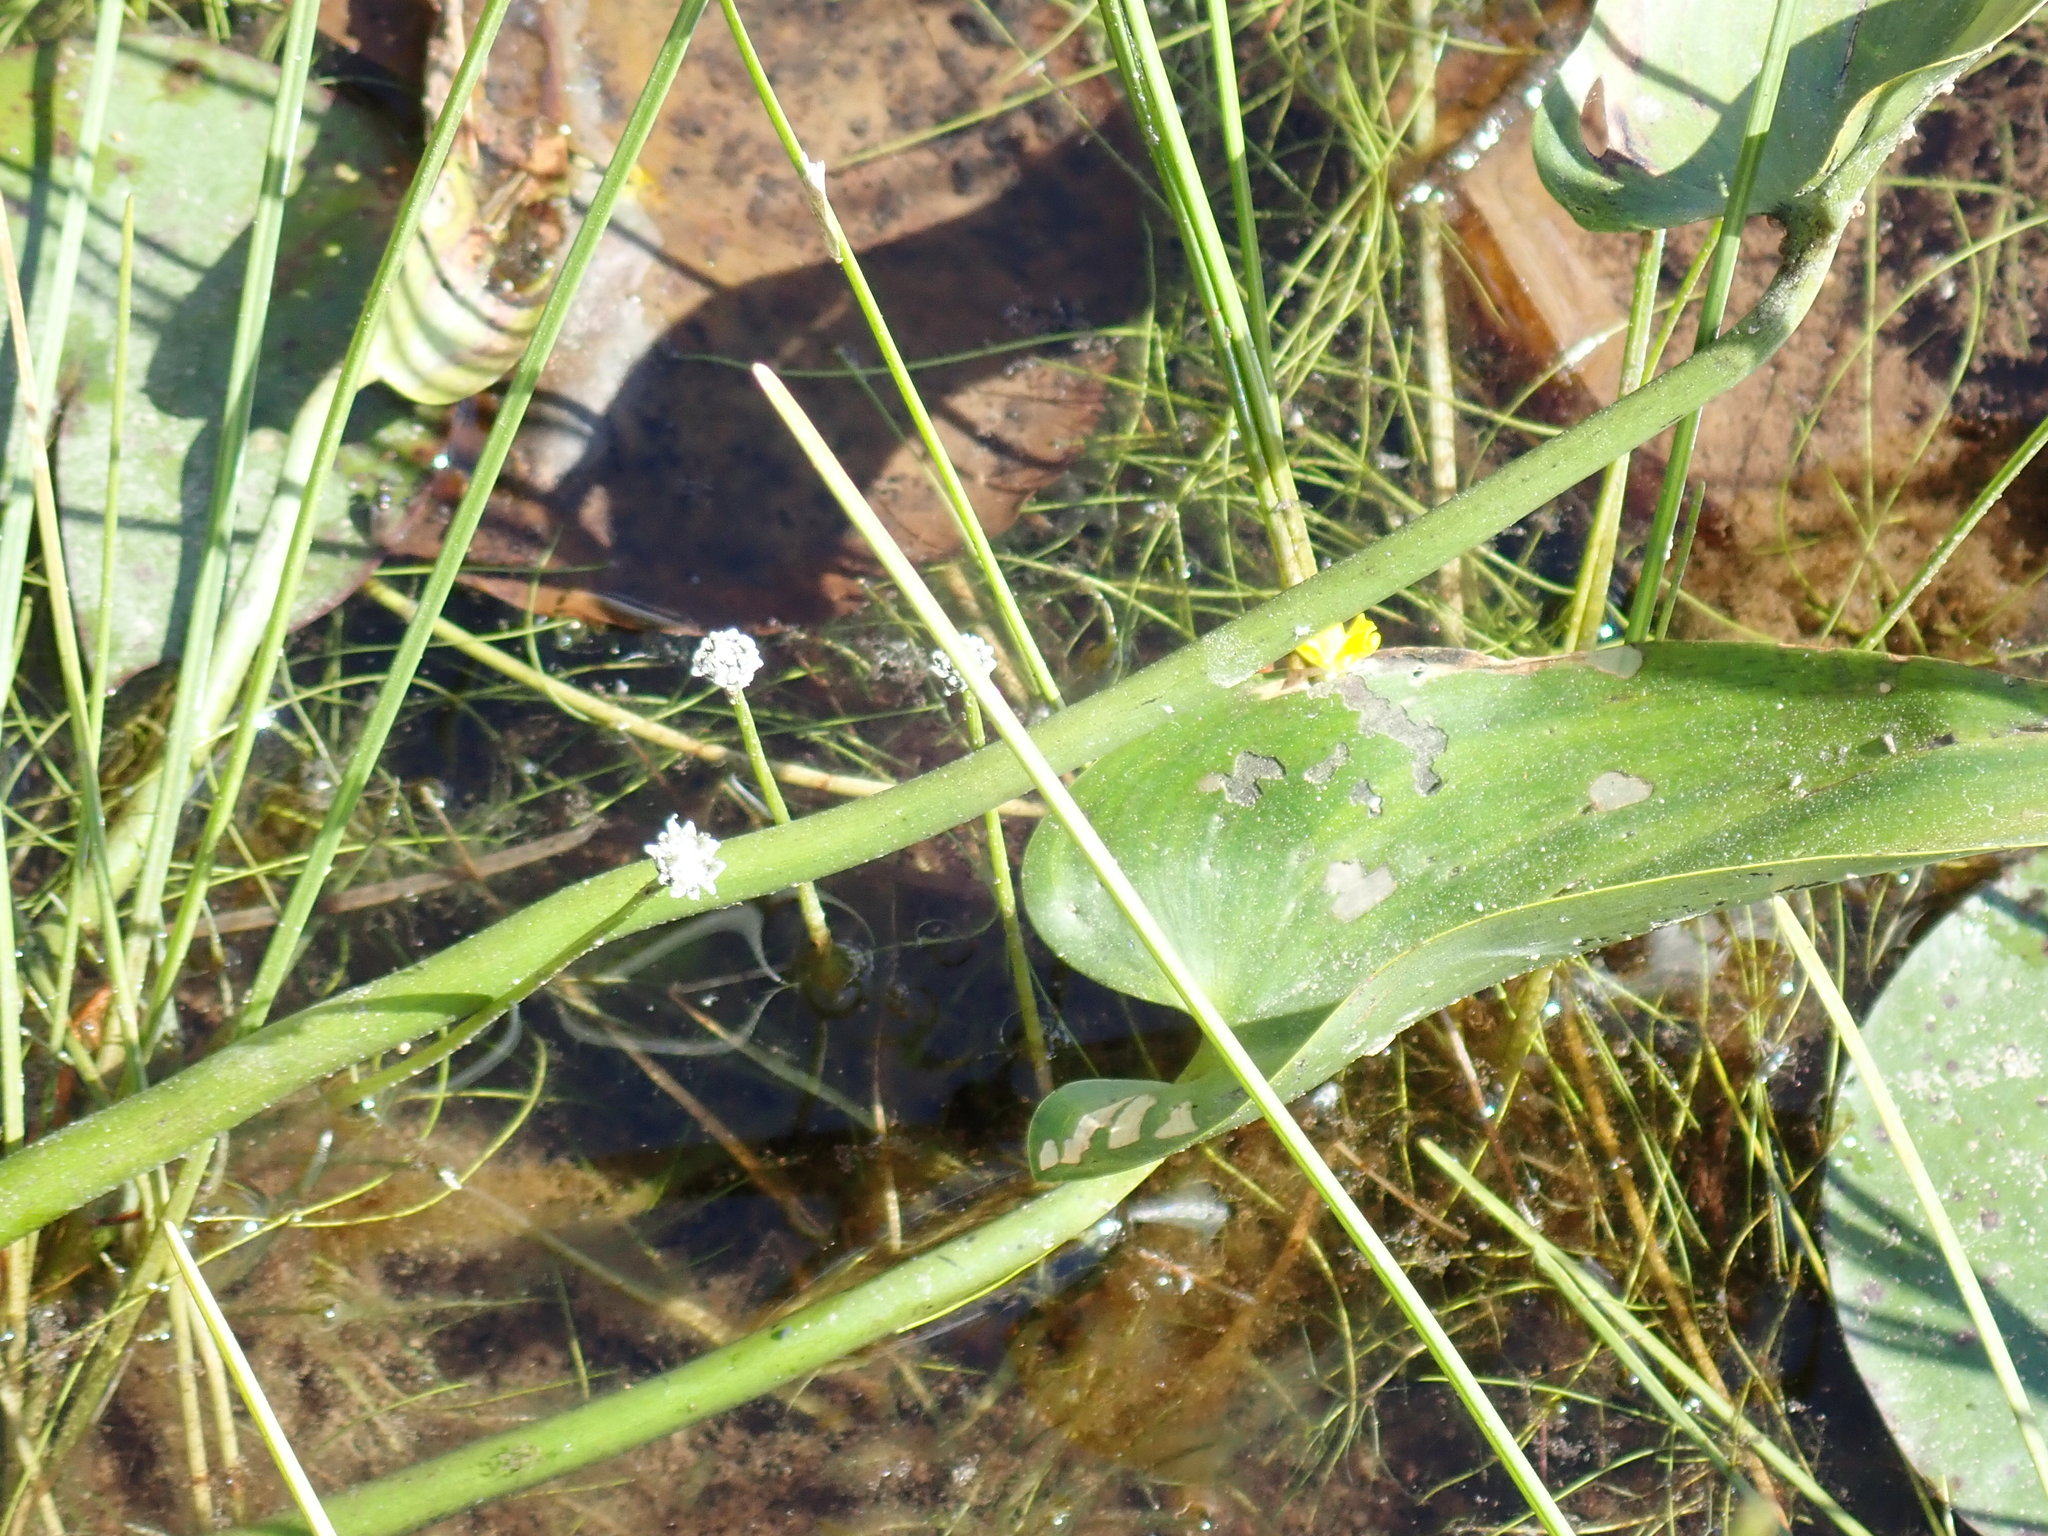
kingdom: Plantae
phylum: Tracheophyta
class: Liliopsida
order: Poales
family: Eriocaulaceae
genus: Eriocaulon
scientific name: Eriocaulon aquaticum
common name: Pipewort
